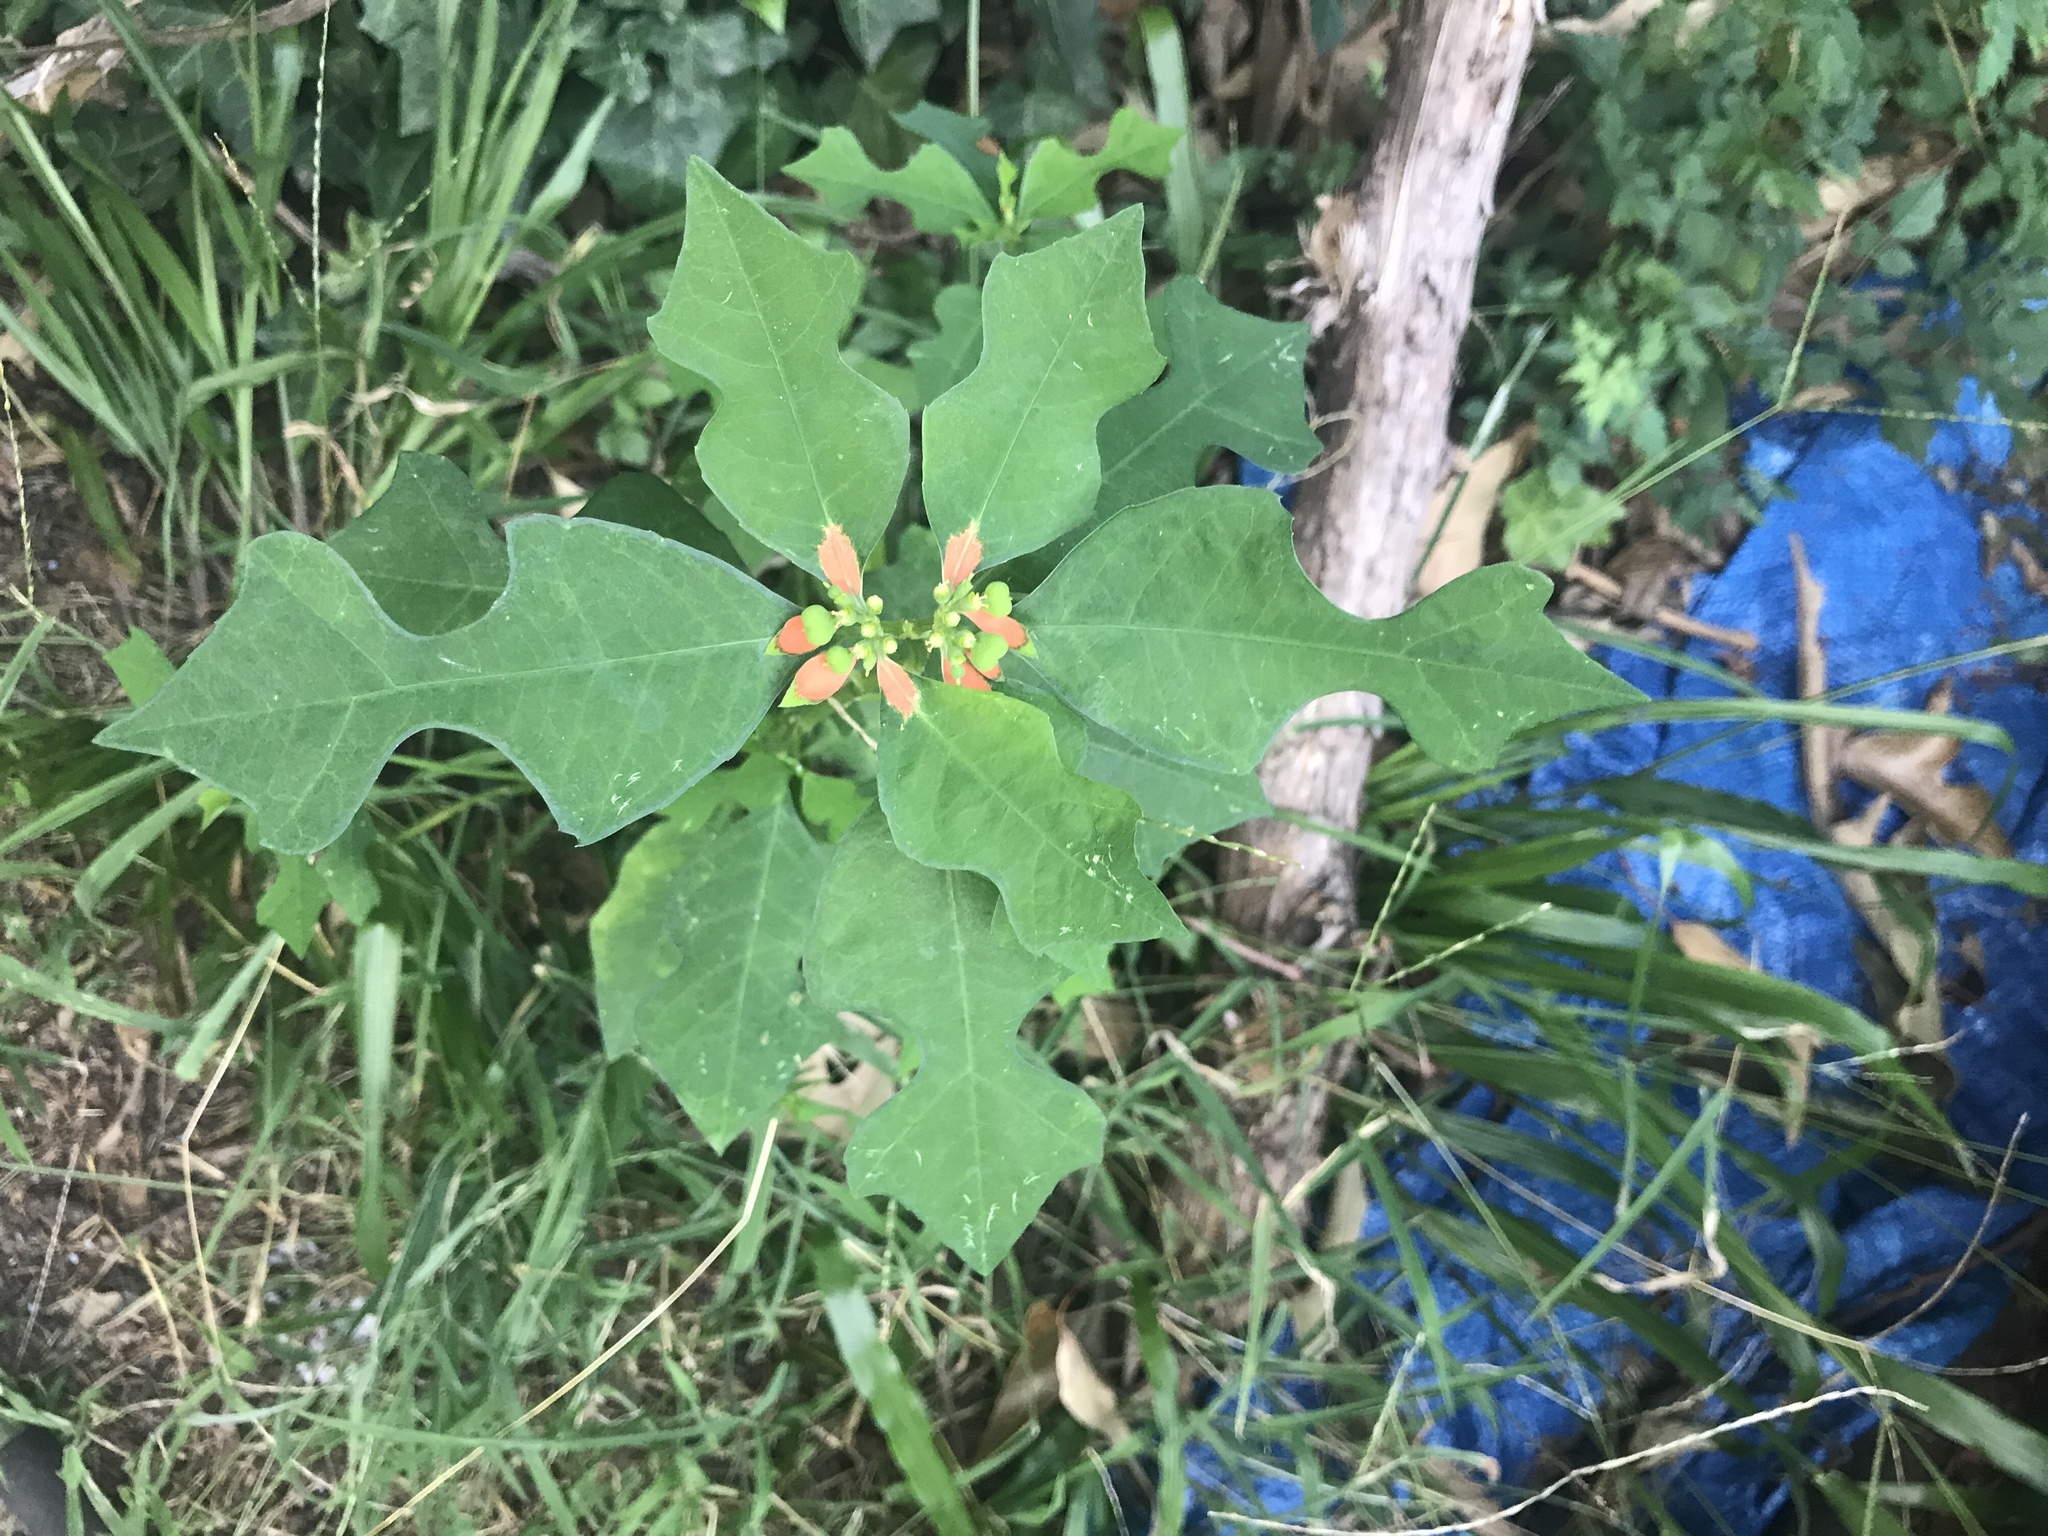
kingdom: Plantae
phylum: Tracheophyta
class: Magnoliopsida
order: Malpighiales
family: Euphorbiaceae
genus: Euphorbia
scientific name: Euphorbia heterophylla
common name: Mexican fireplant
